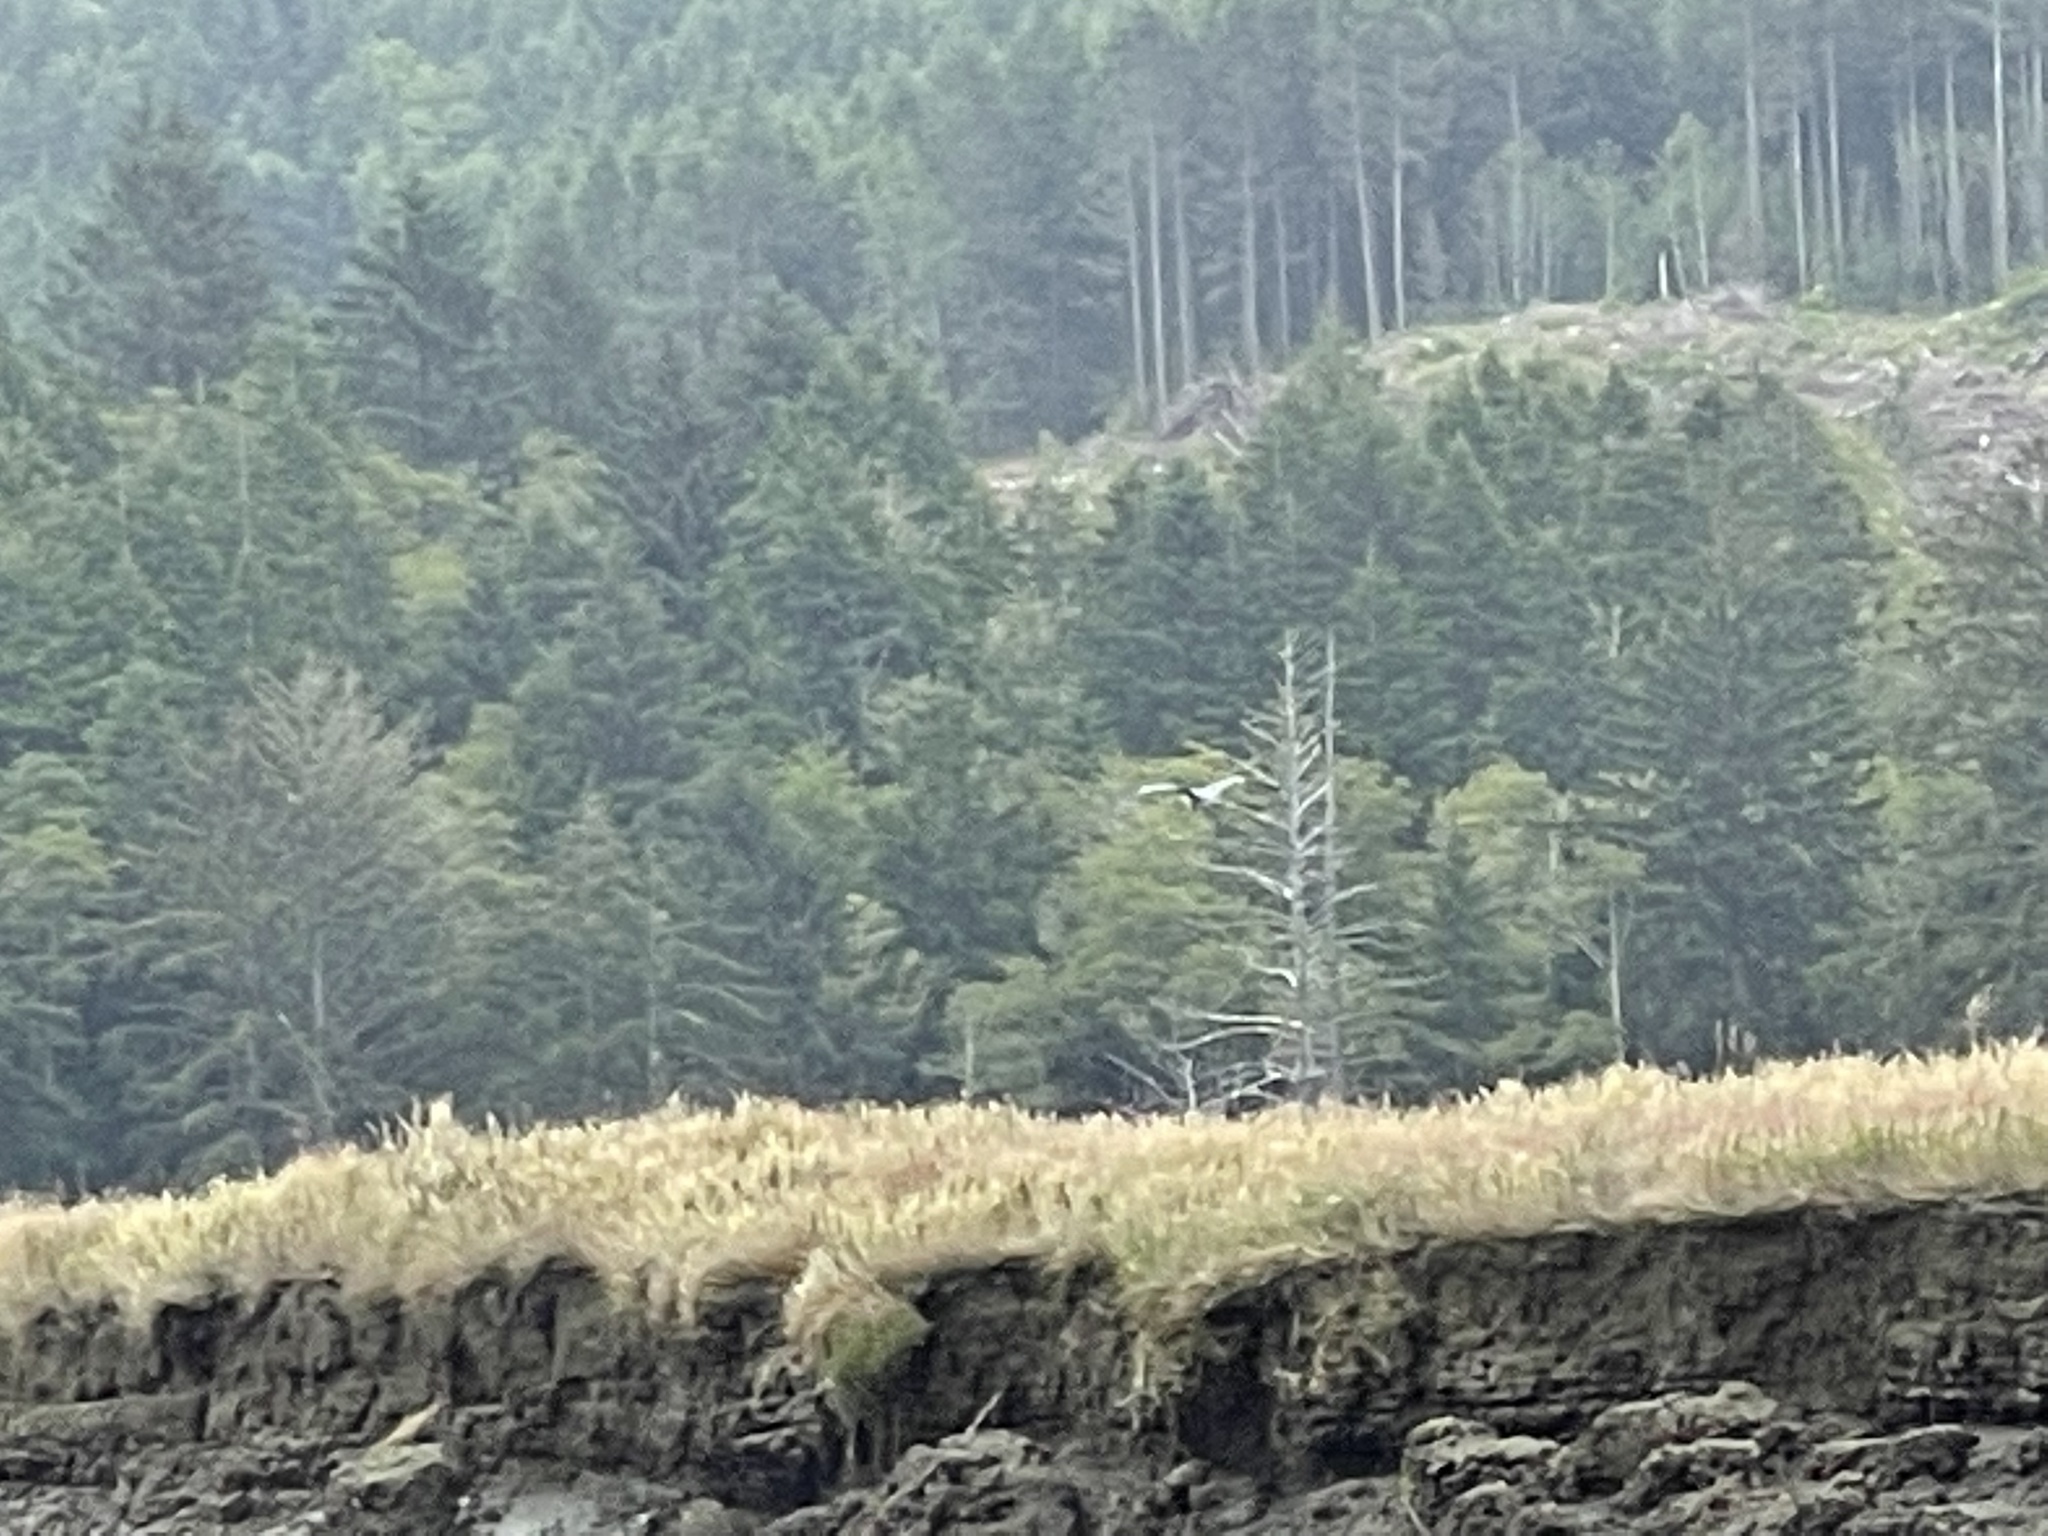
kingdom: Animalia
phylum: Chordata
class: Aves
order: Pelecaniformes
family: Ardeidae
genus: Ardea
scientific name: Ardea herodias
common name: Great blue heron
